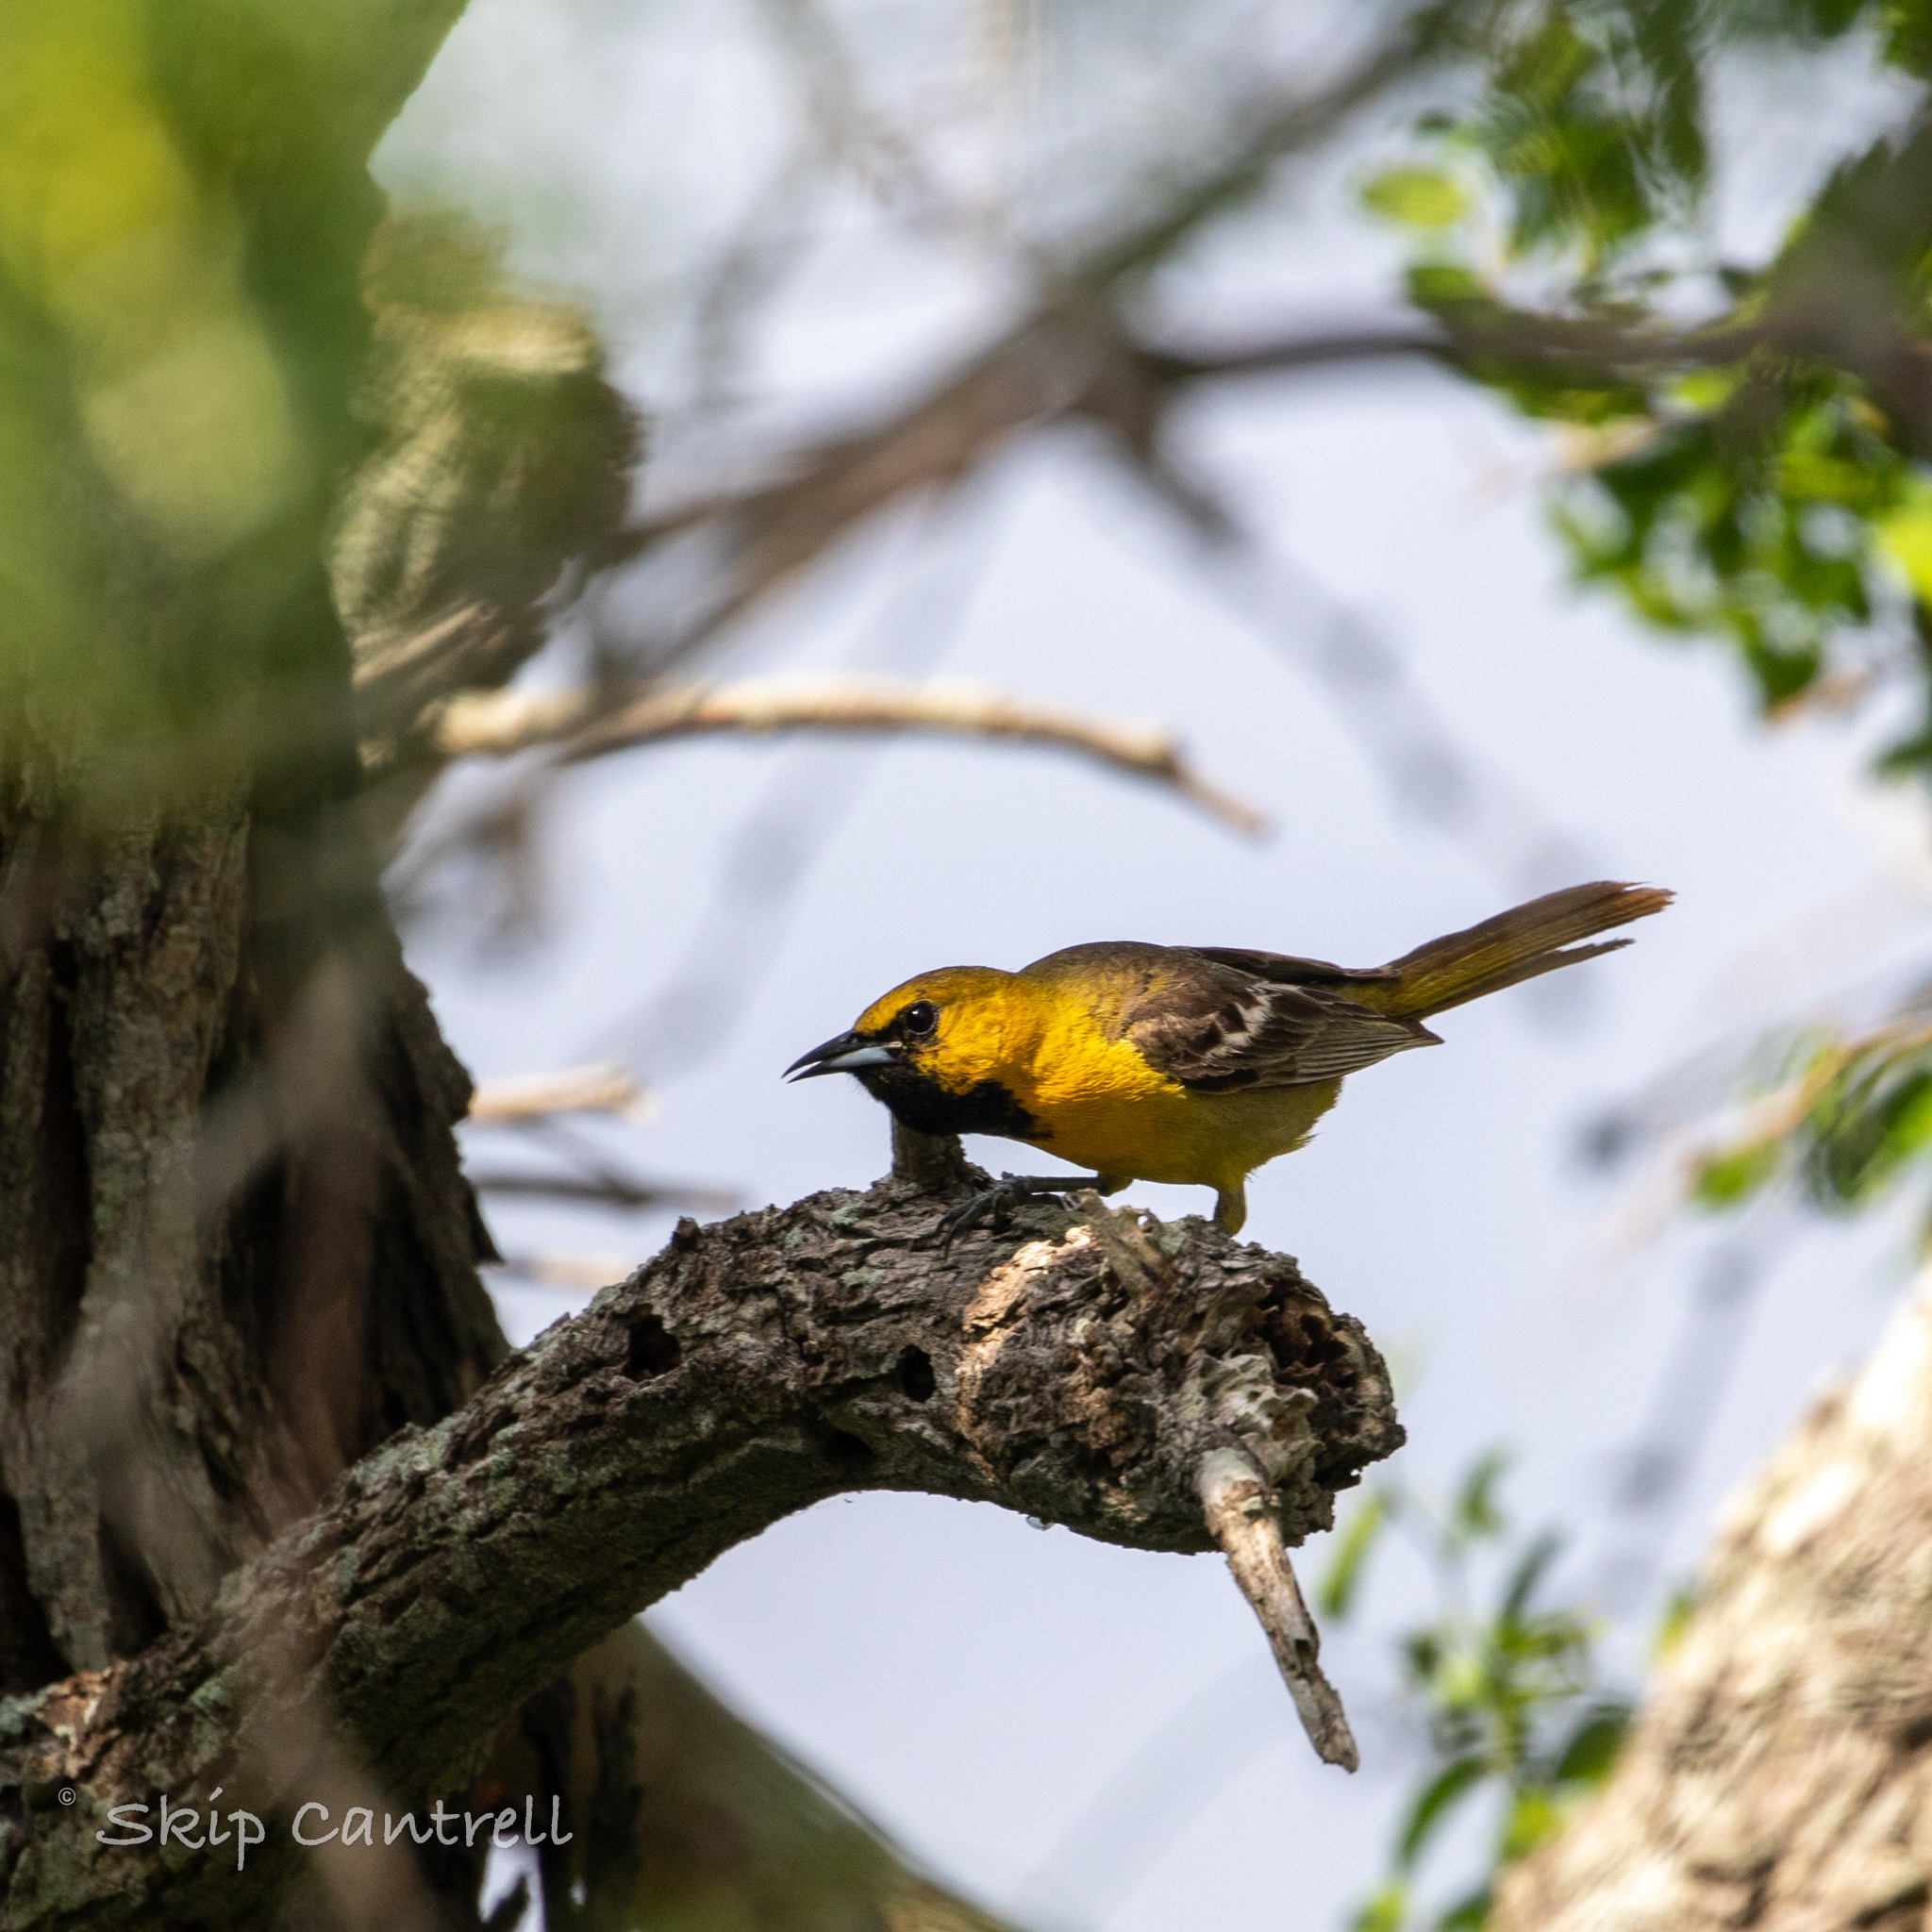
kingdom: Animalia
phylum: Chordata
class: Aves
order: Passeriformes
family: Icteridae
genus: Icterus
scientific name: Icterus cucullatus
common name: Hooded oriole
